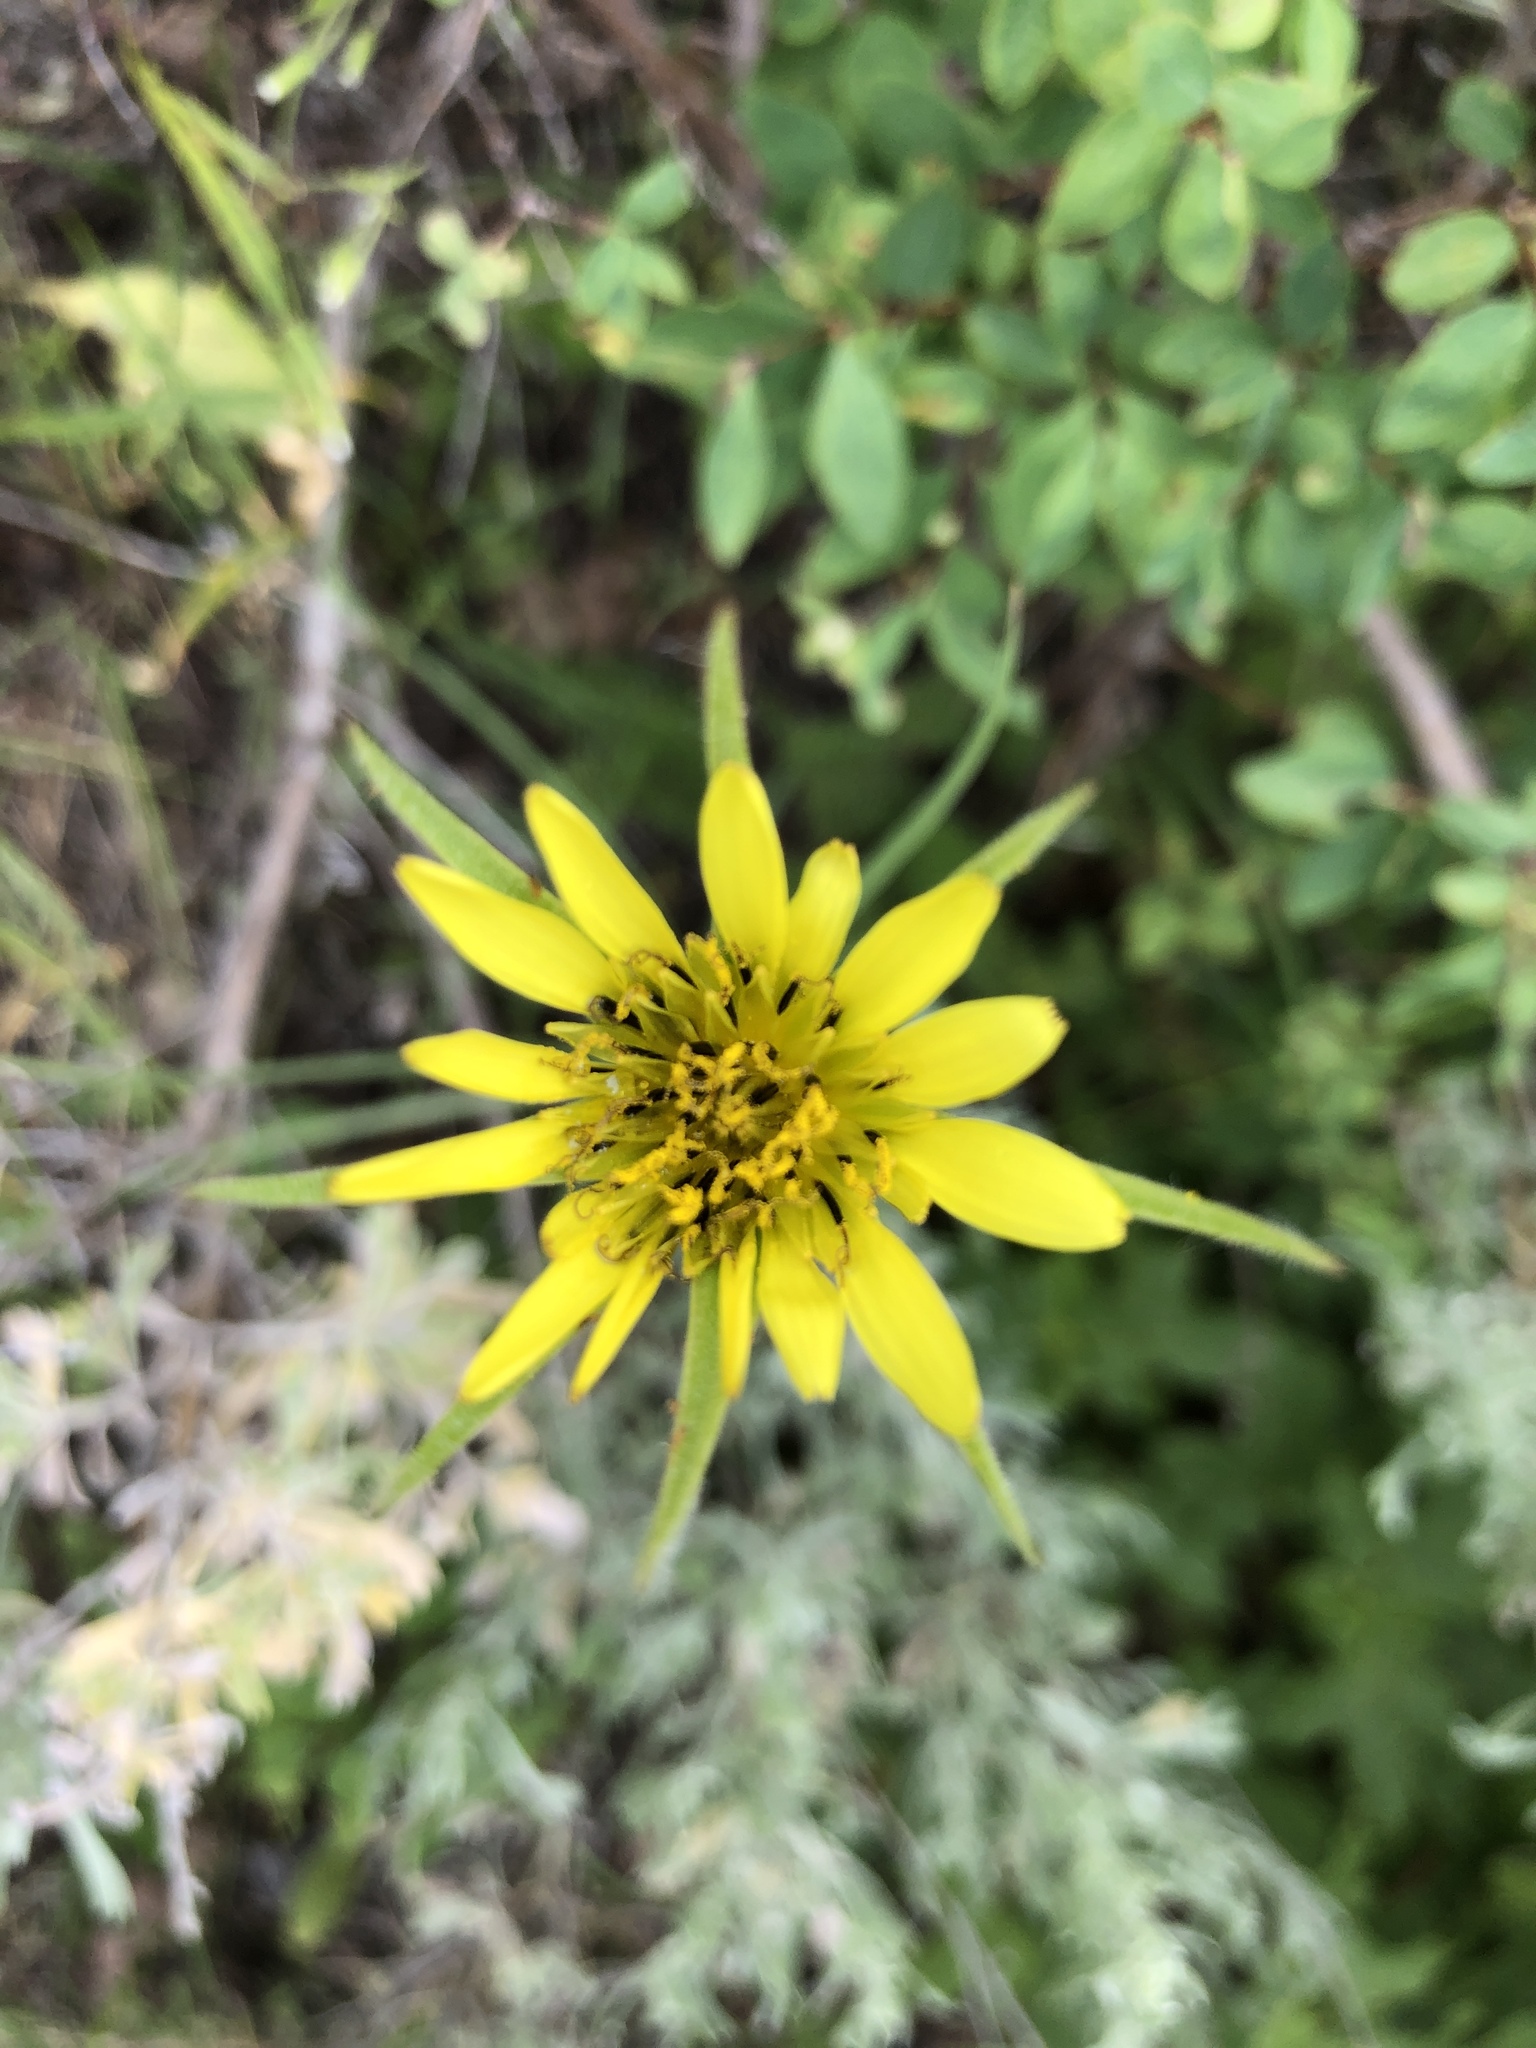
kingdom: Plantae
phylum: Tracheophyta
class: Magnoliopsida
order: Asterales
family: Asteraceae
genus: Tragopogon
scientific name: Tragopogon dubius
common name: Yellow salsify
